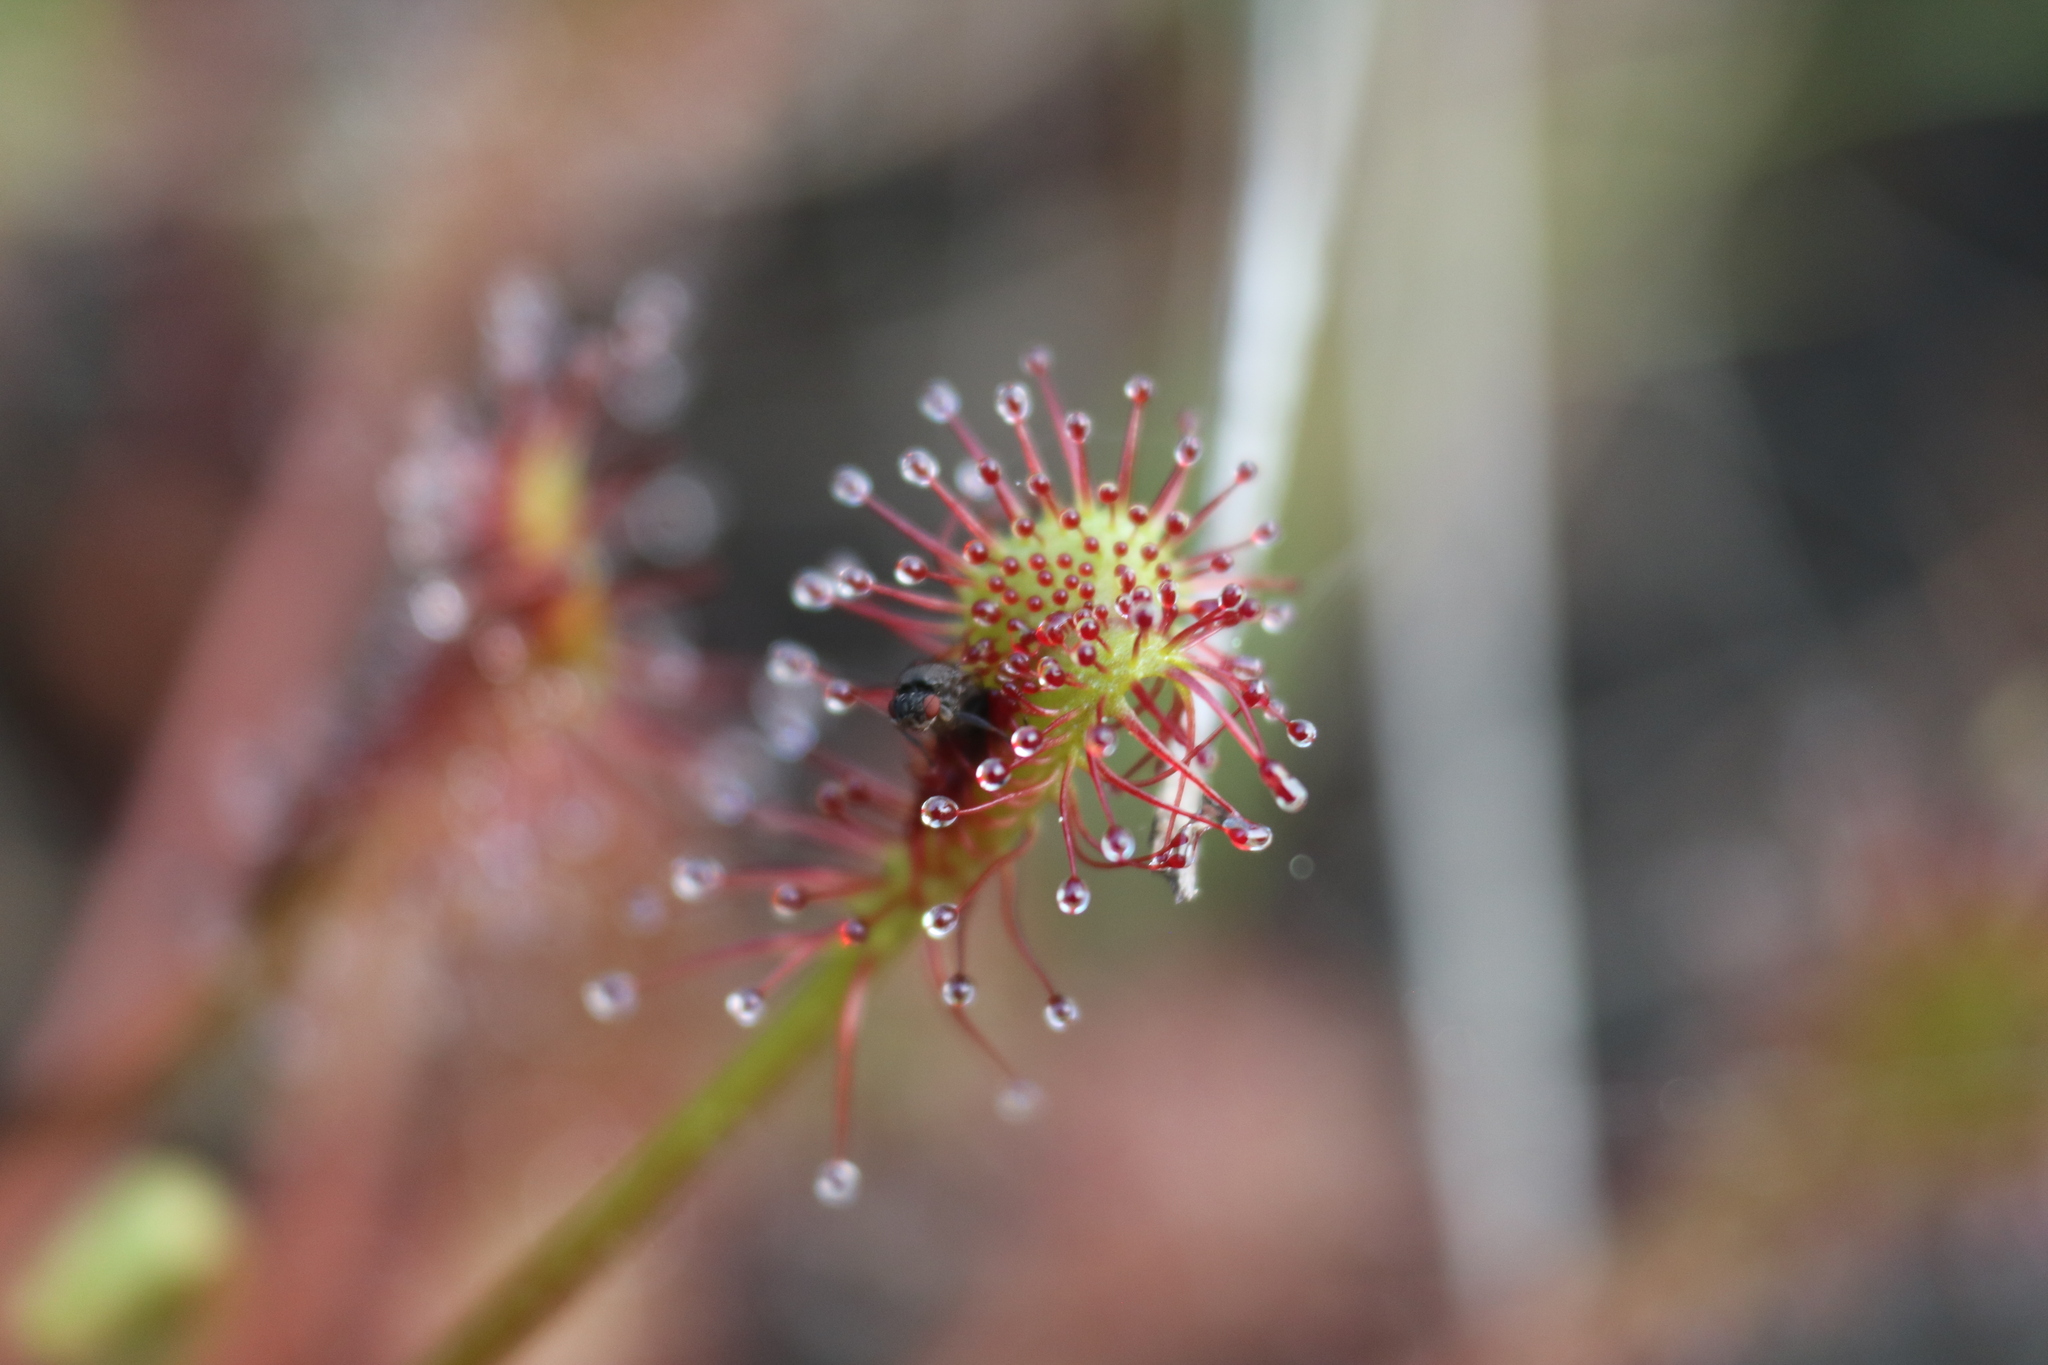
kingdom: Plantae
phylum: Tracheophyta
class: Magnoliopsida
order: Caryophyllales
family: Droseraceae
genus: Drosera
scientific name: Drosera intermedia
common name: Oblong-leaved sundew
